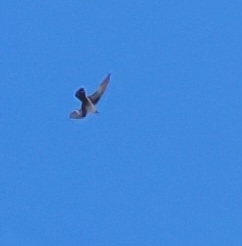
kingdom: Animalia
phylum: Chordata
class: Aves
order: Passeriformes
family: Hirundinidae
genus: Ptyonoprogne
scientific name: Ptyonoprogne rupestris
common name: Eurasian crag martin
